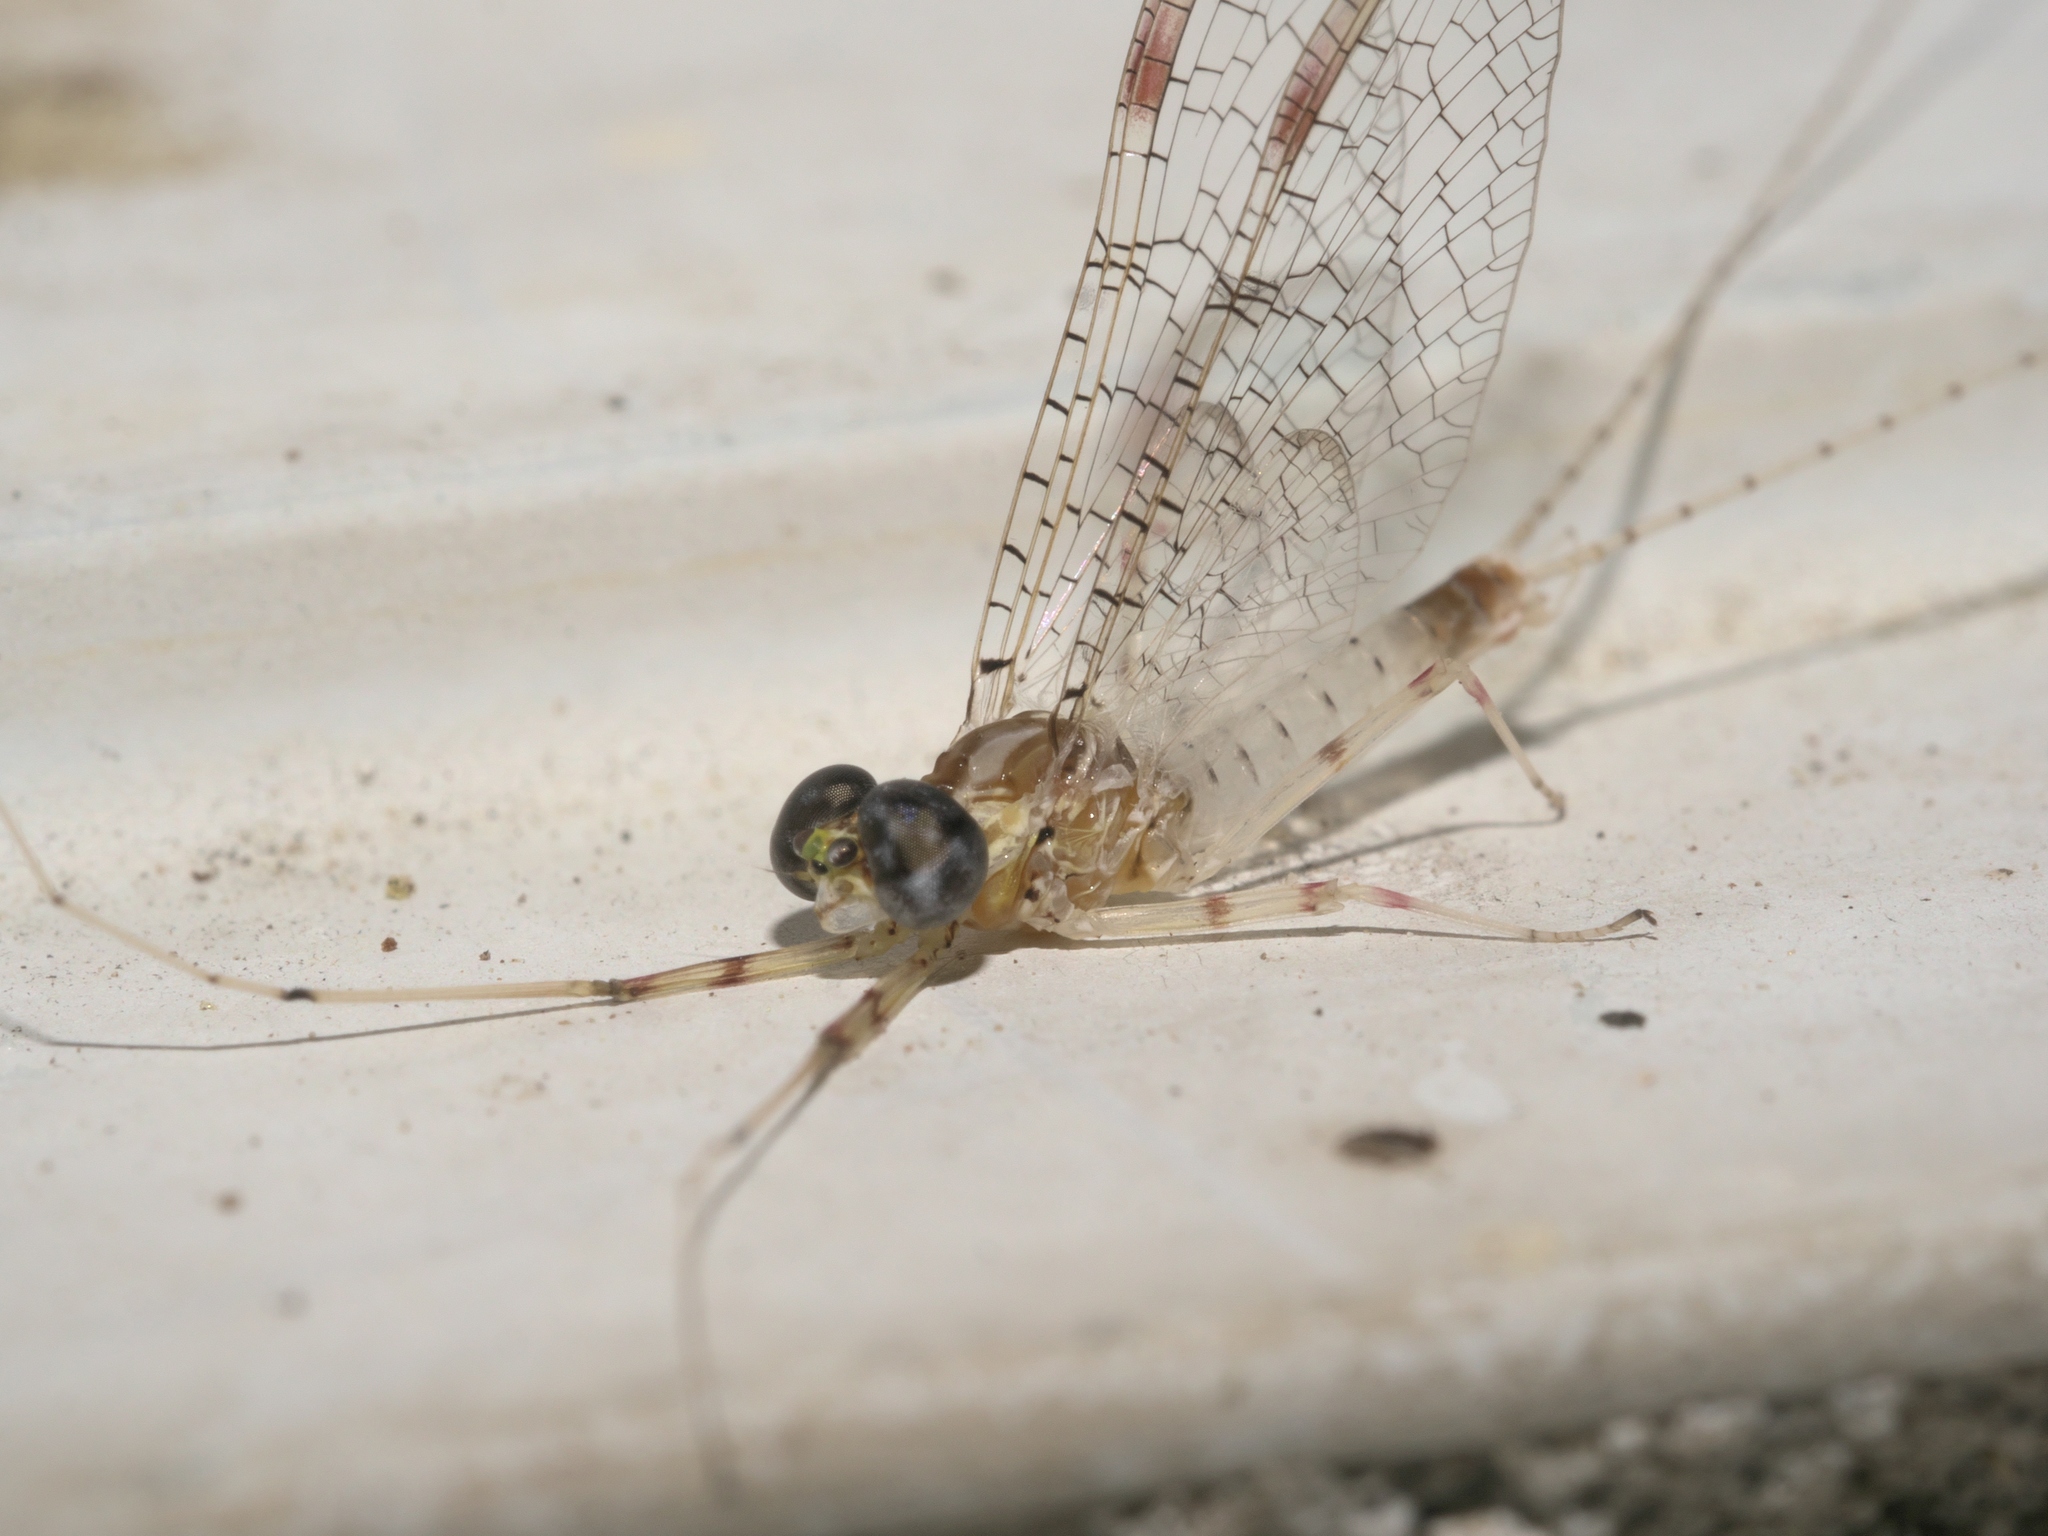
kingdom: Animalia
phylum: Arthropoda
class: Insecta
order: Ephemeroptera
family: Heptageniidae
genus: Maccaffertium
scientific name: Maccaffertium terminatum
